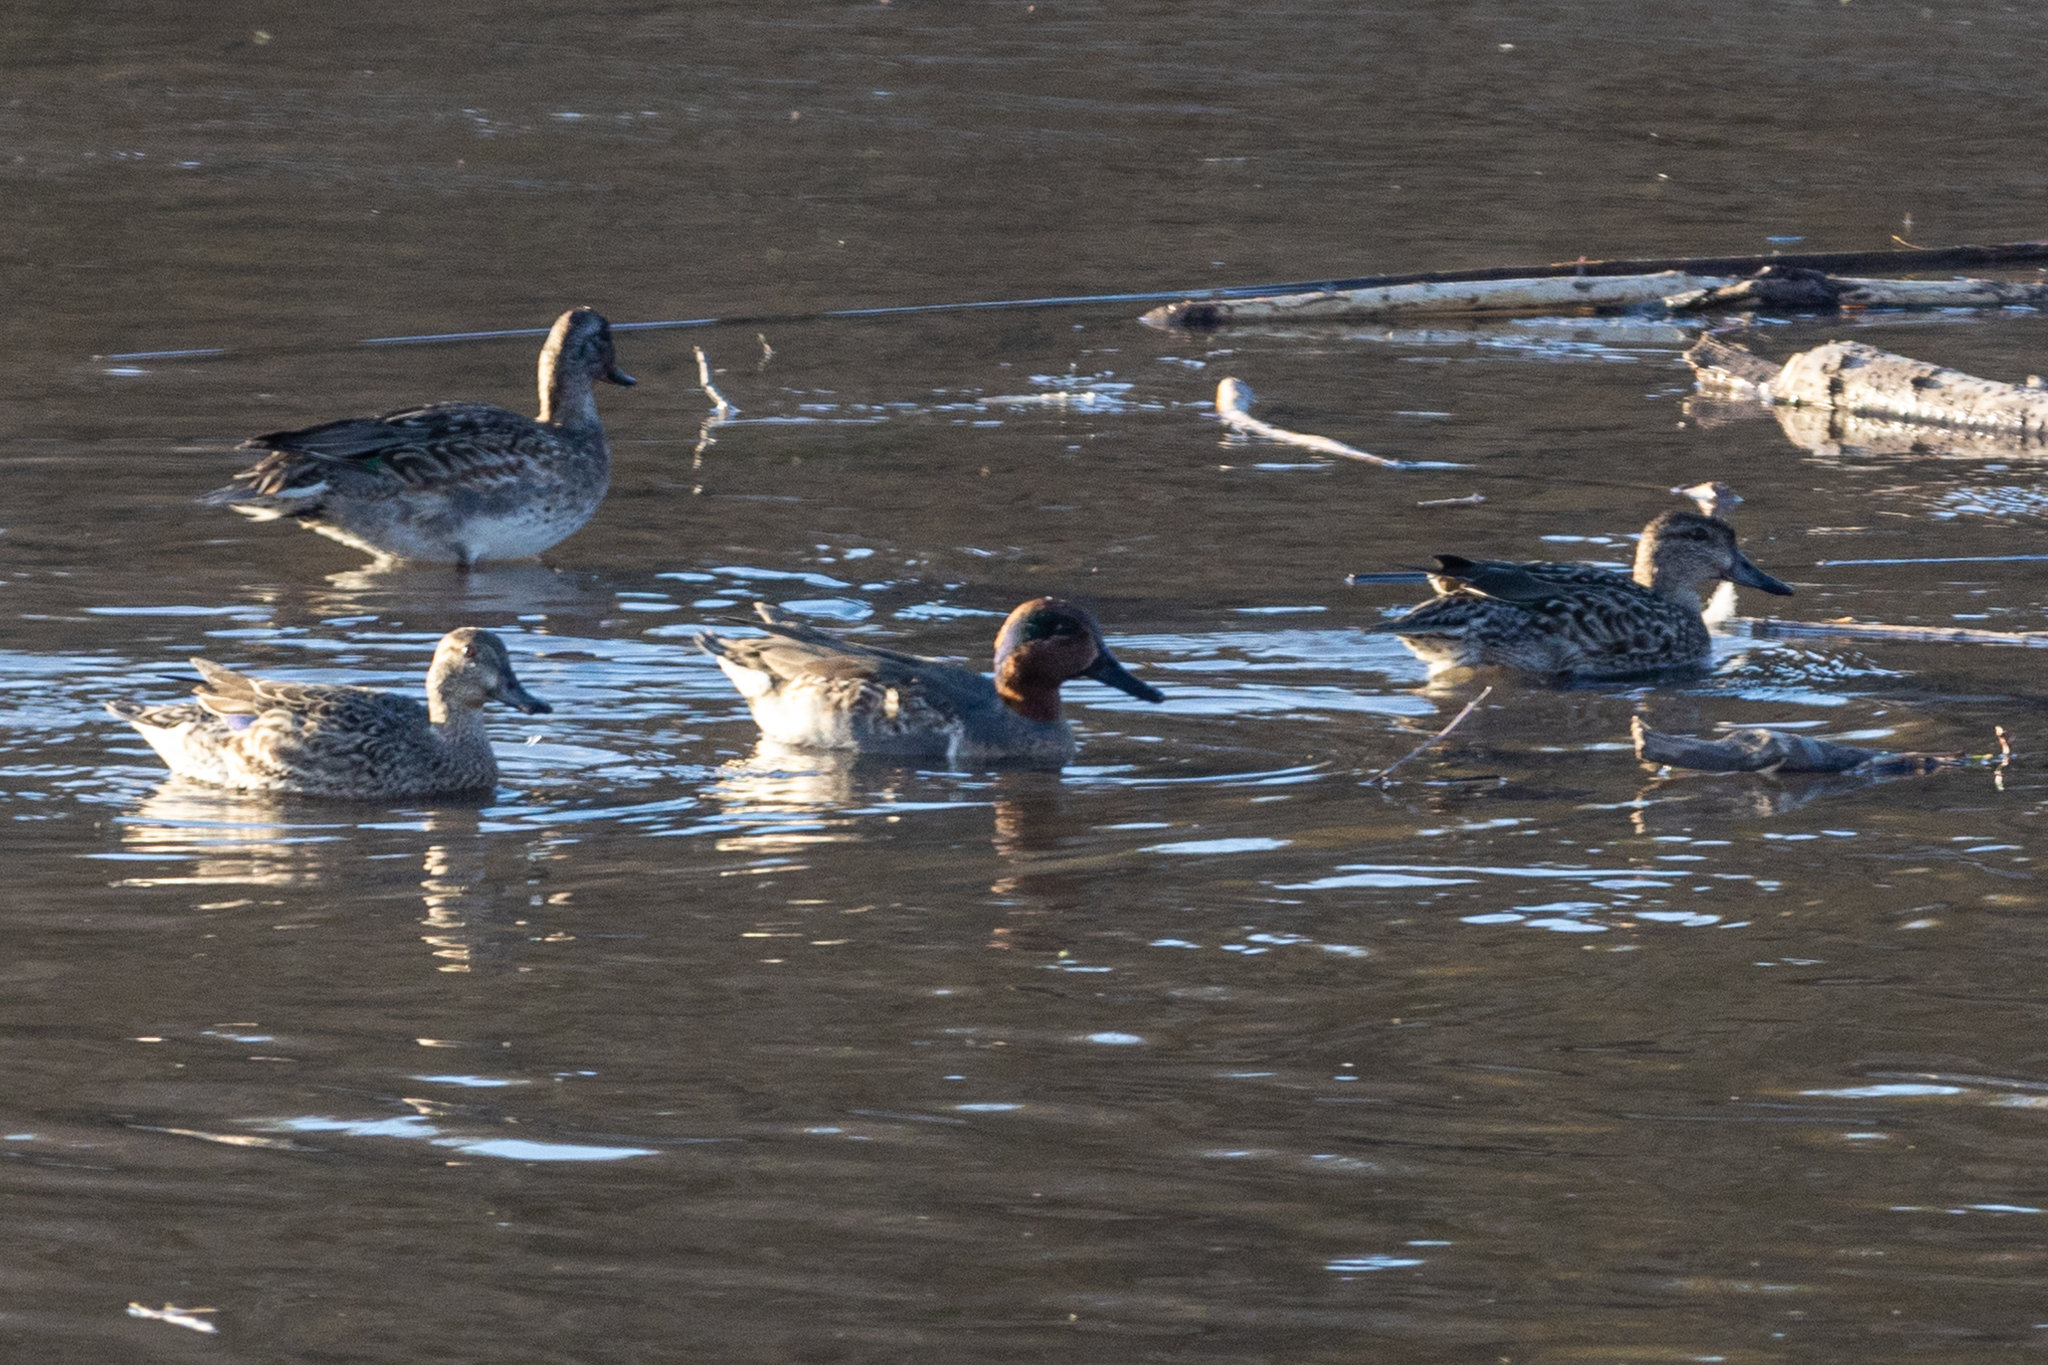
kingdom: Animalia
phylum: Chordata
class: Aves
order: Anseriformes
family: Anatidae
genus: Anas
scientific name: Anas crecca
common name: Eurasian teal
